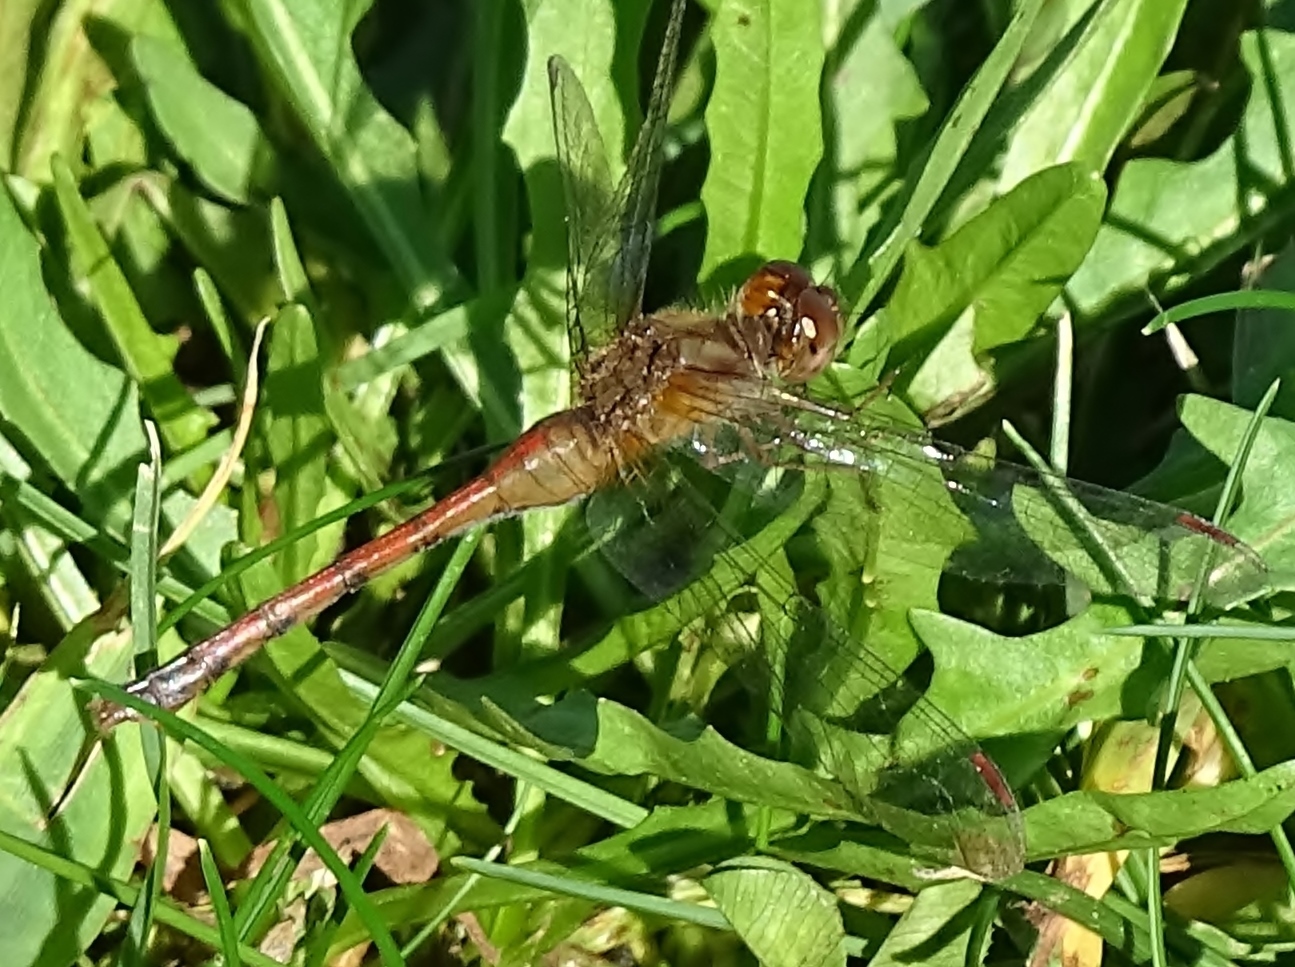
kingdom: Animalia
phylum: Arthropoda
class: Insecta
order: Odonata
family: Libellulidae
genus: Sympetrum
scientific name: Sympetrum vicinum
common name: Autumn meadowhawk
